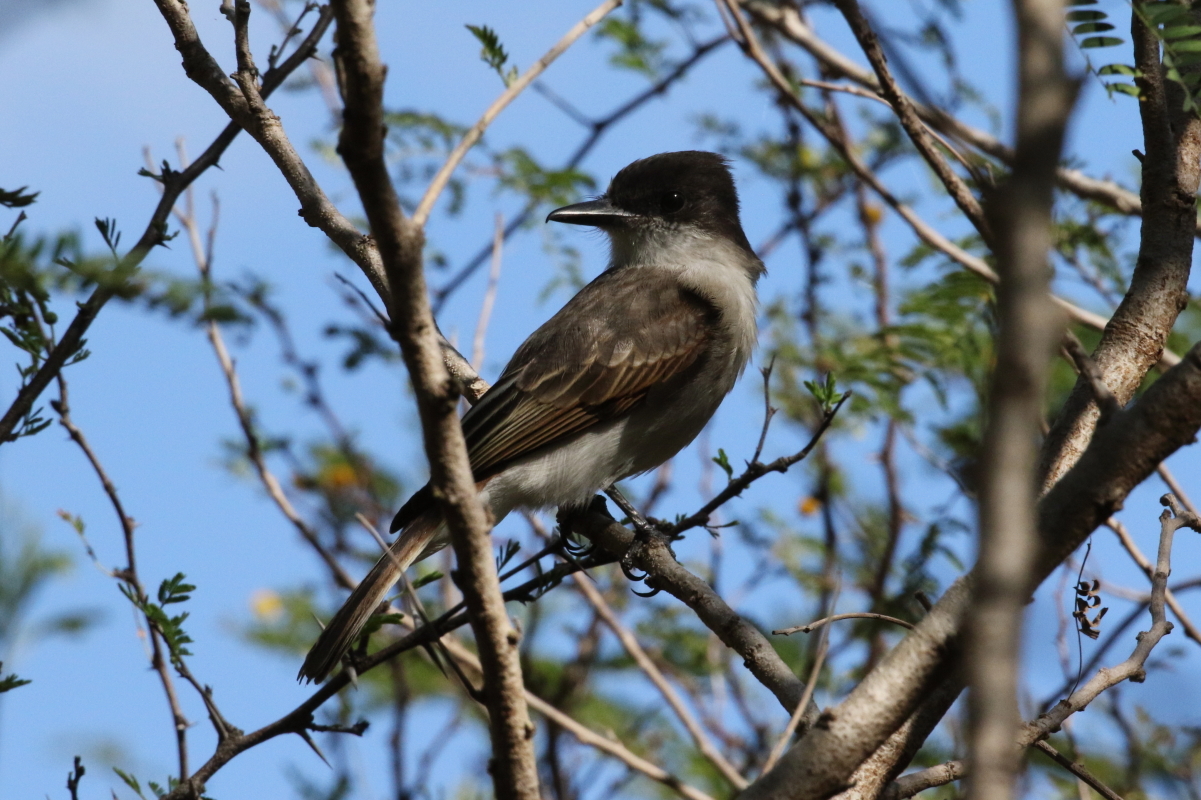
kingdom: Animalia
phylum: Chordata
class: Aves
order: Passeriformes
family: Tyrannidae
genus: Tyrannus
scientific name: Tyrannus caudifasciatus
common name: Loggerhead kingbird
